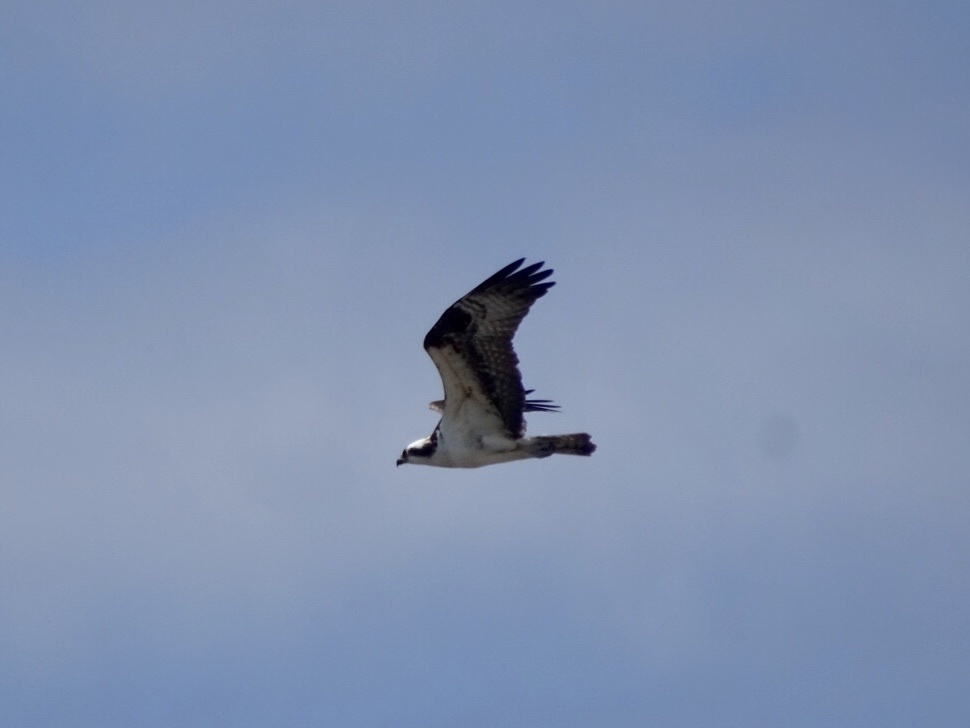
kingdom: Animalia
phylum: Chordata
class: Aves
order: Accipitriformes
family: Pandionidae
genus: Pandion
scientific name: Pandion haliaetus
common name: Osprey
